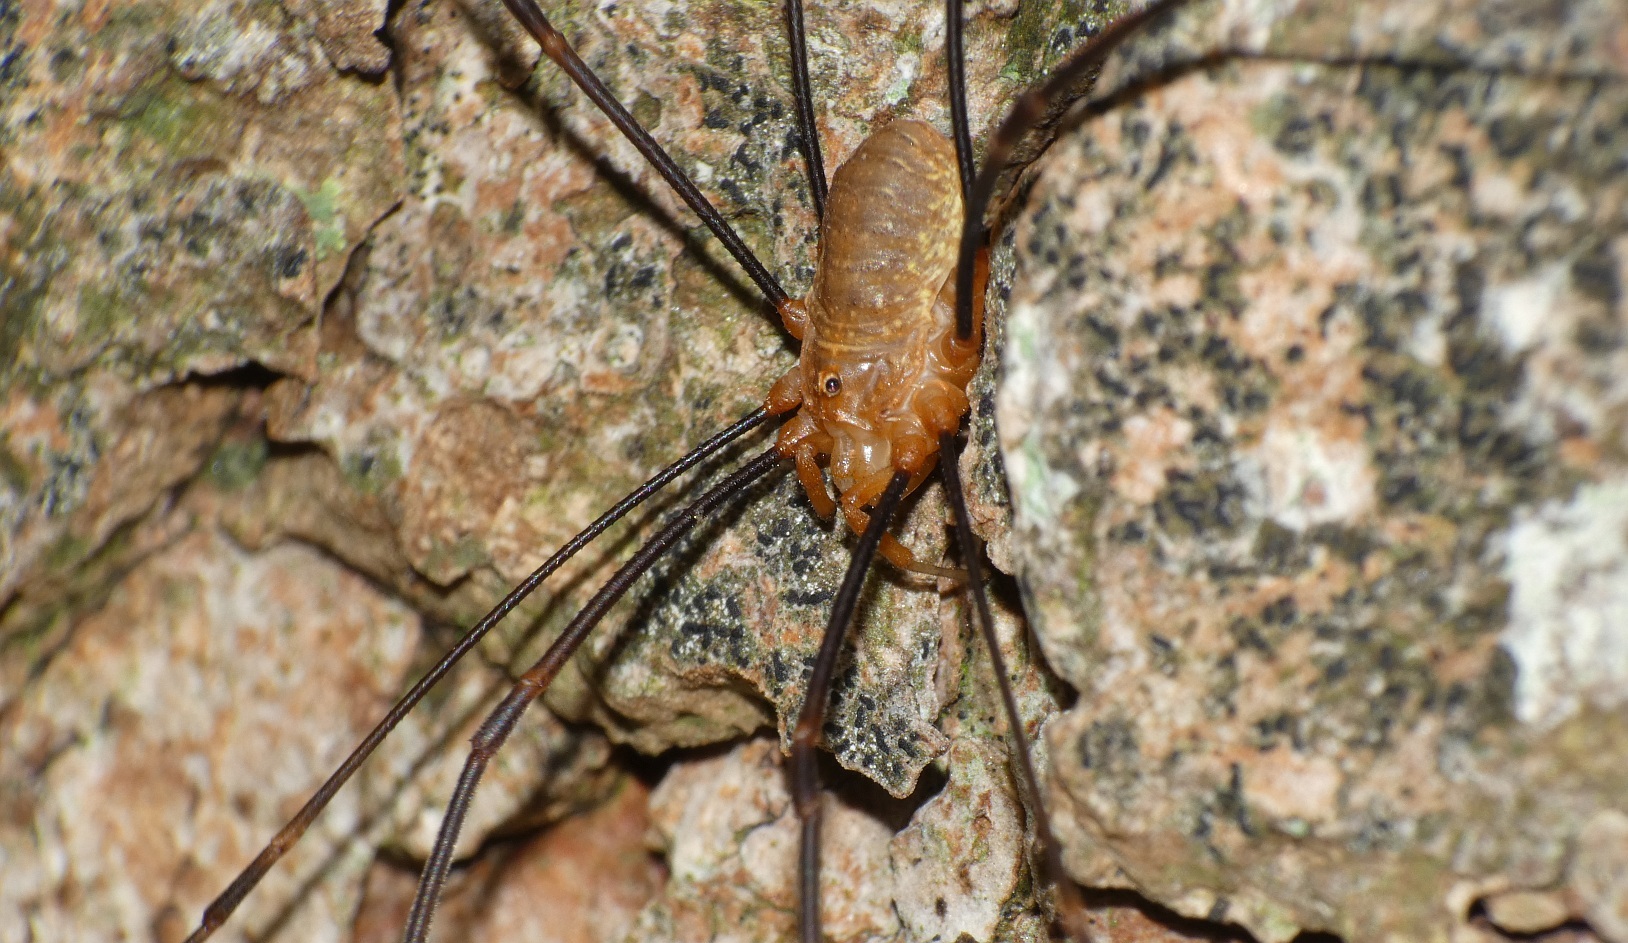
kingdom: Animalia
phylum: Arthropoda
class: Arachnida
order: Opiliones
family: Phalangiidae
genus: Opilio
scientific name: Opilio canestrinii
